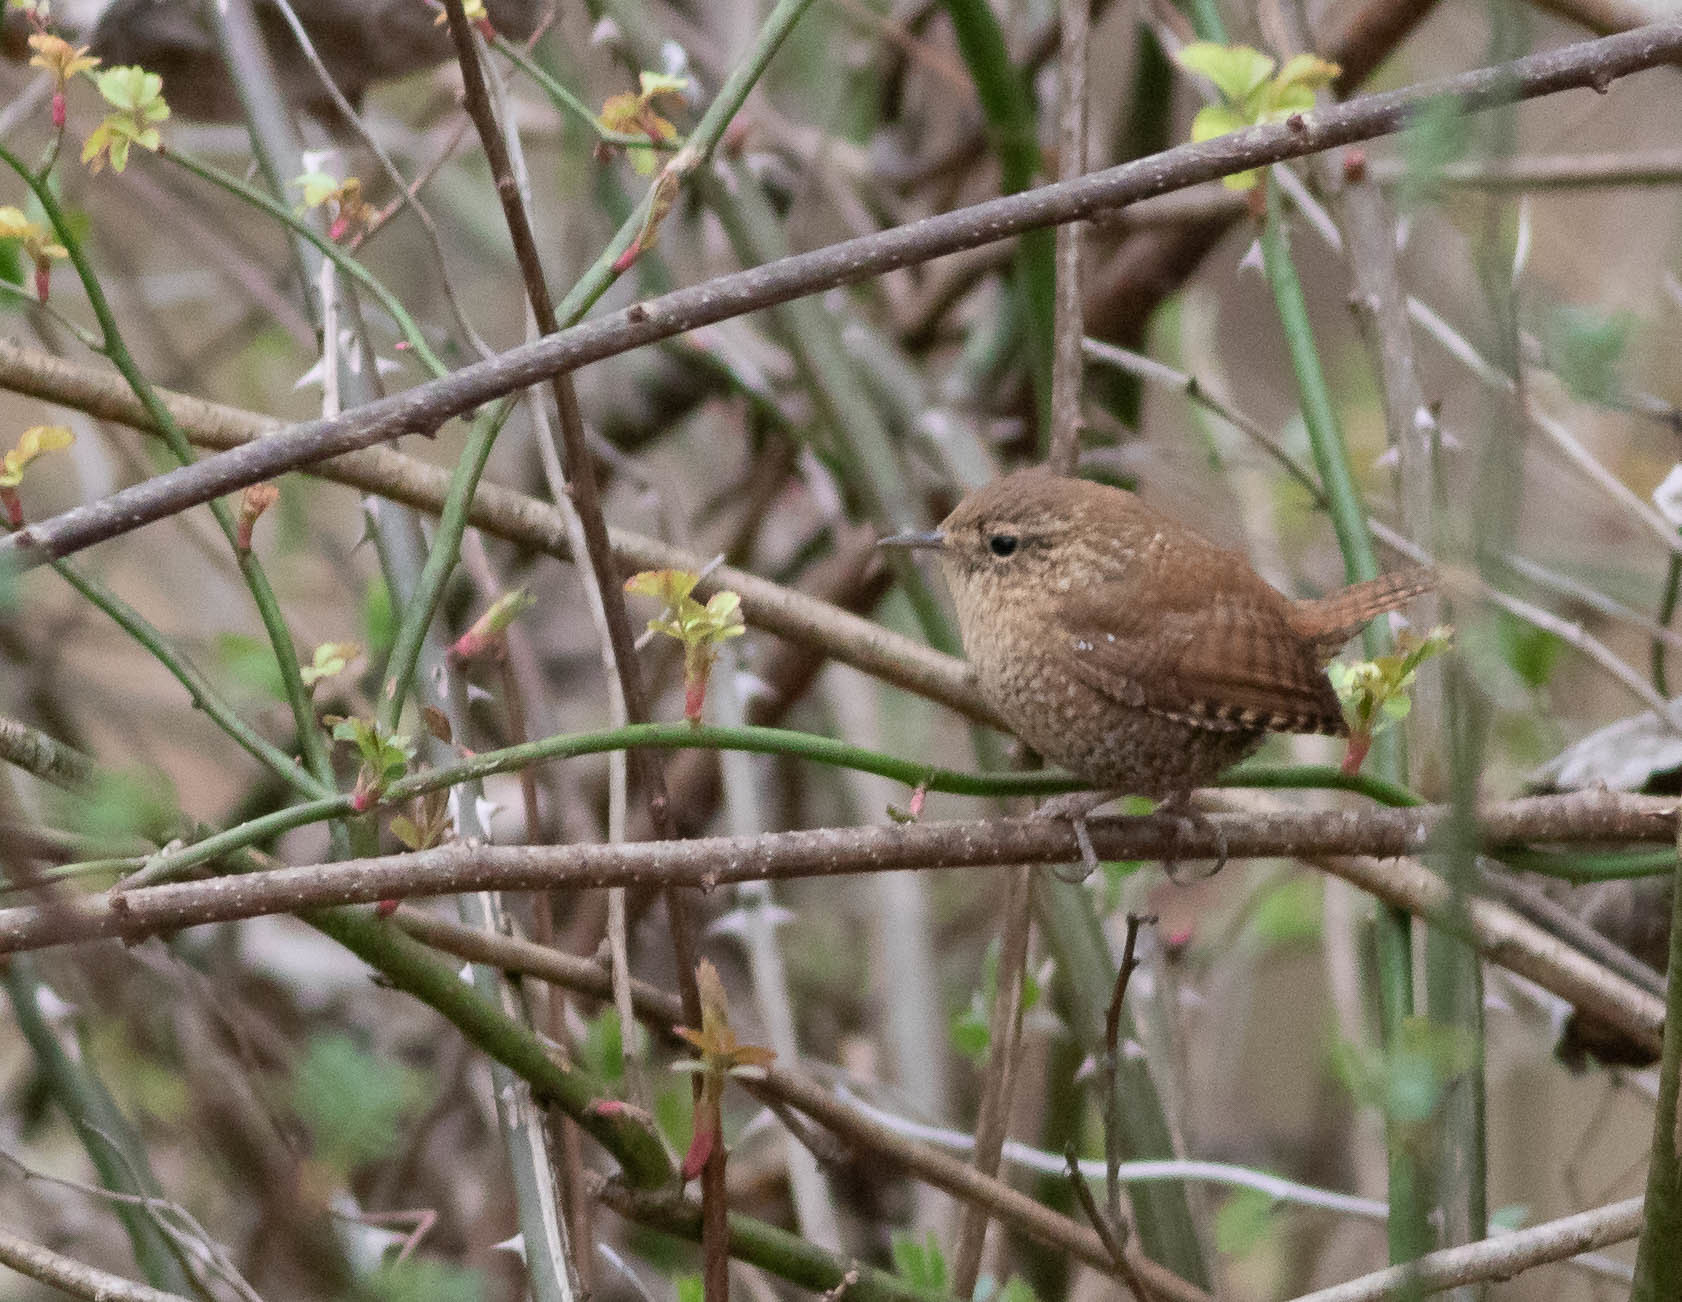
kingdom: Animalia
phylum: Chordata
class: Aves
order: Passeriformes
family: Troglodytidae
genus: Troglodytes
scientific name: Troglodytes hiemalis
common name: Winter wren
